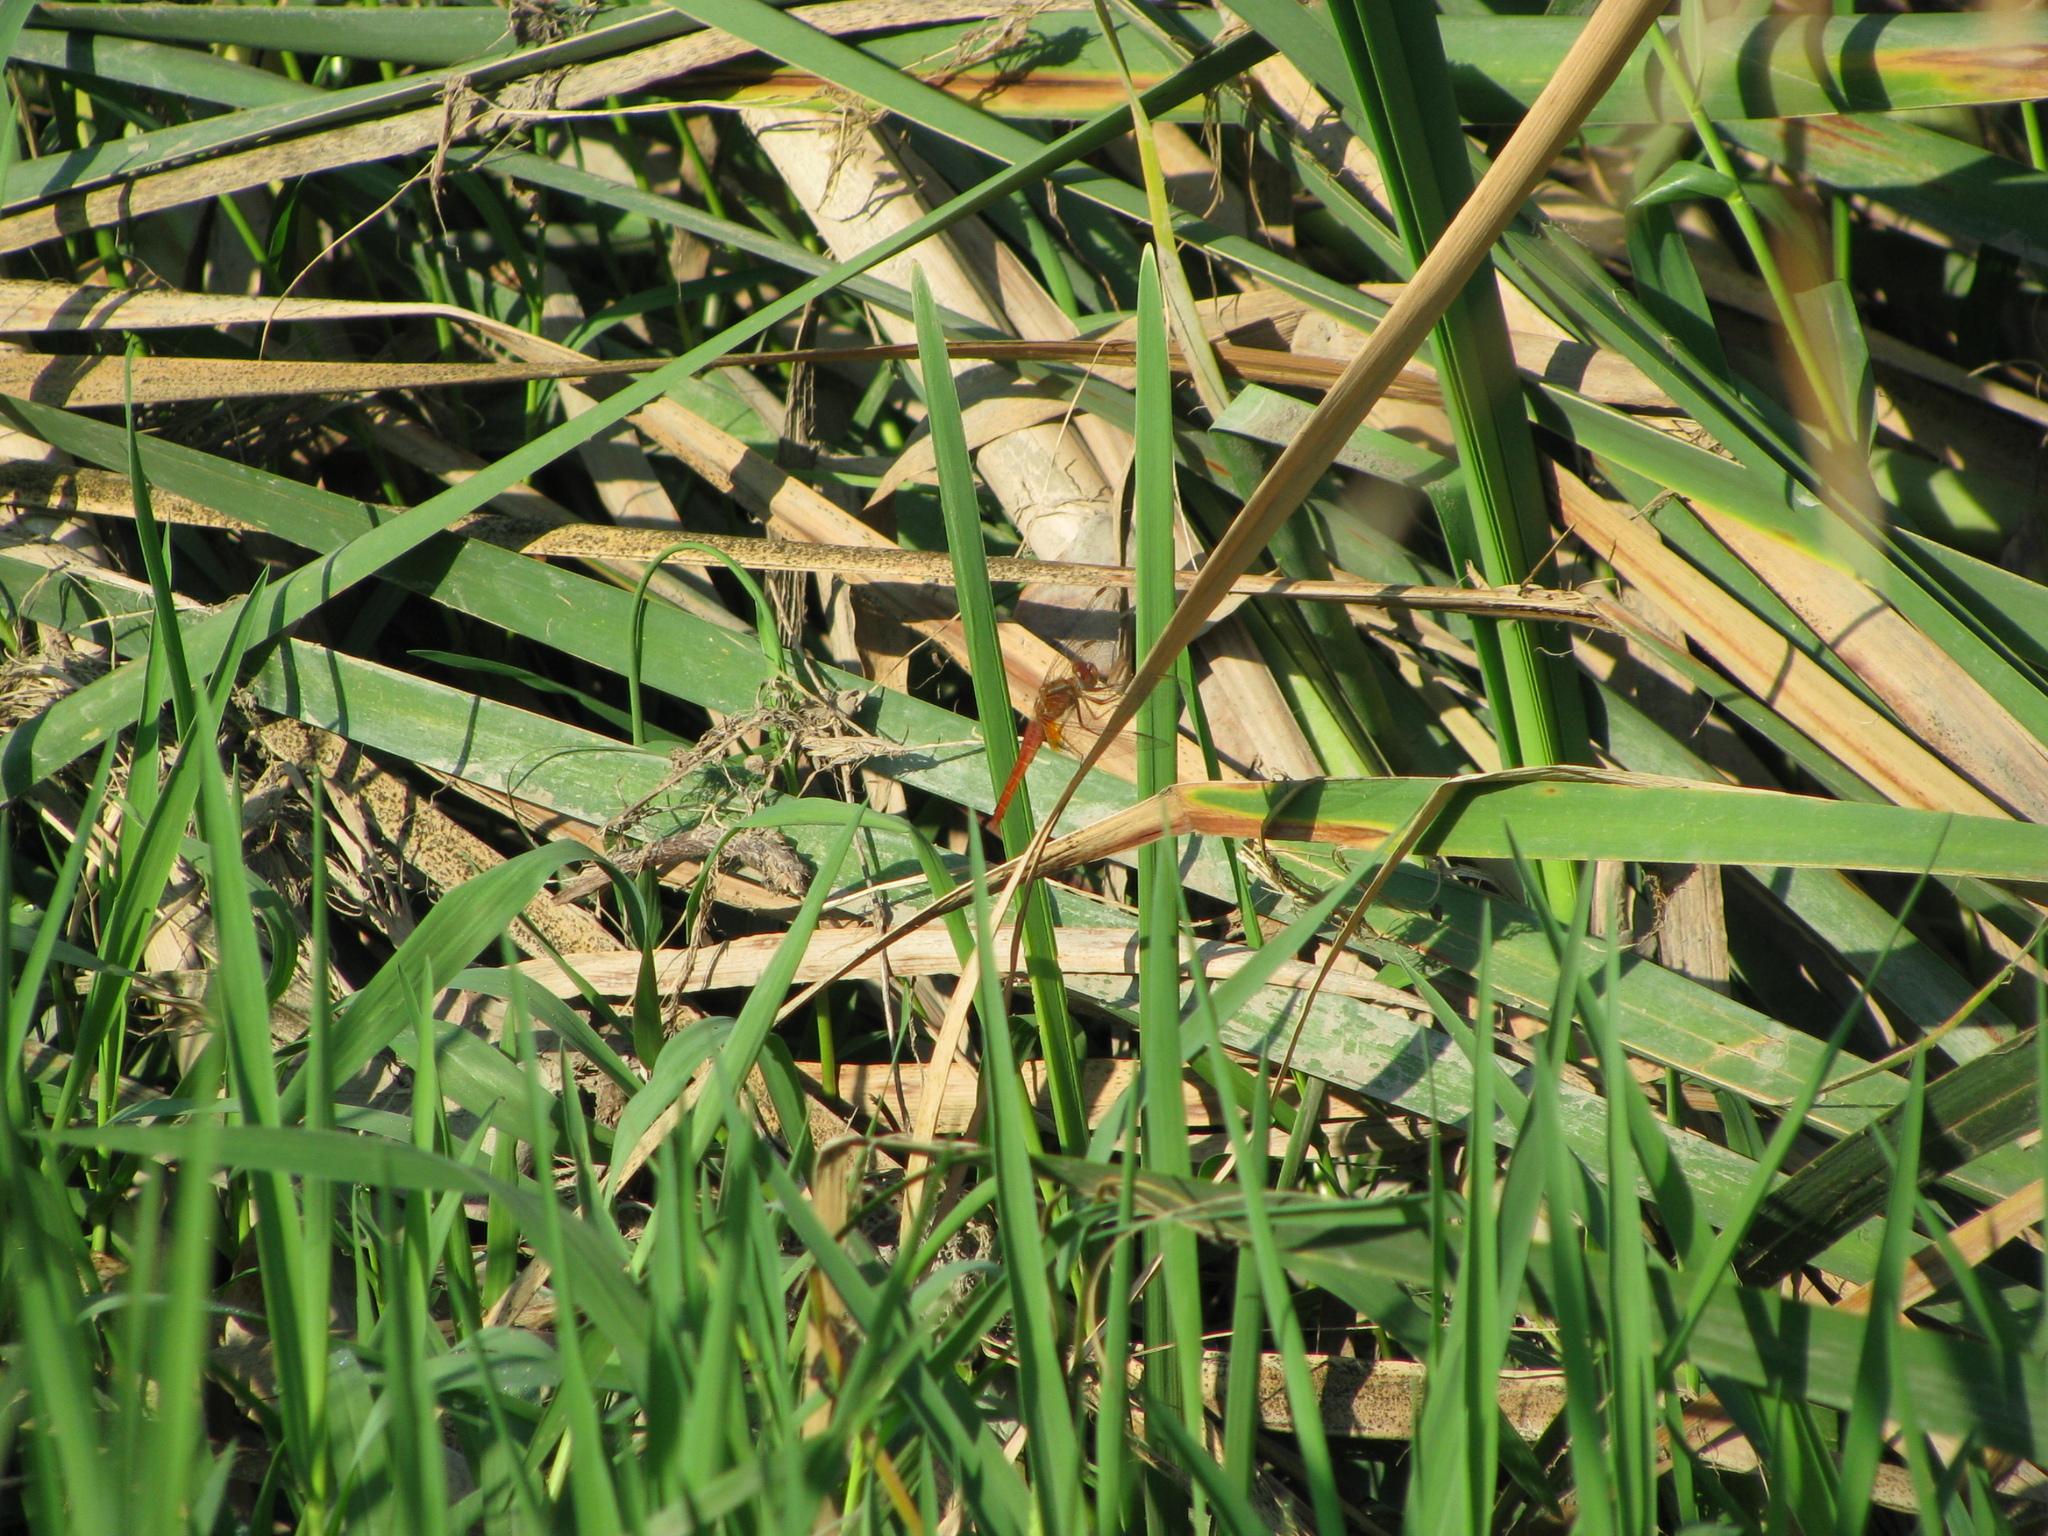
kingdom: Animalia
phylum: Arthropoda
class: Insecta
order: Odonata
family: Libellulidae
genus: Crocothemis
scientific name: Crocothemis erythraea
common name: Scarlet dragonfly
